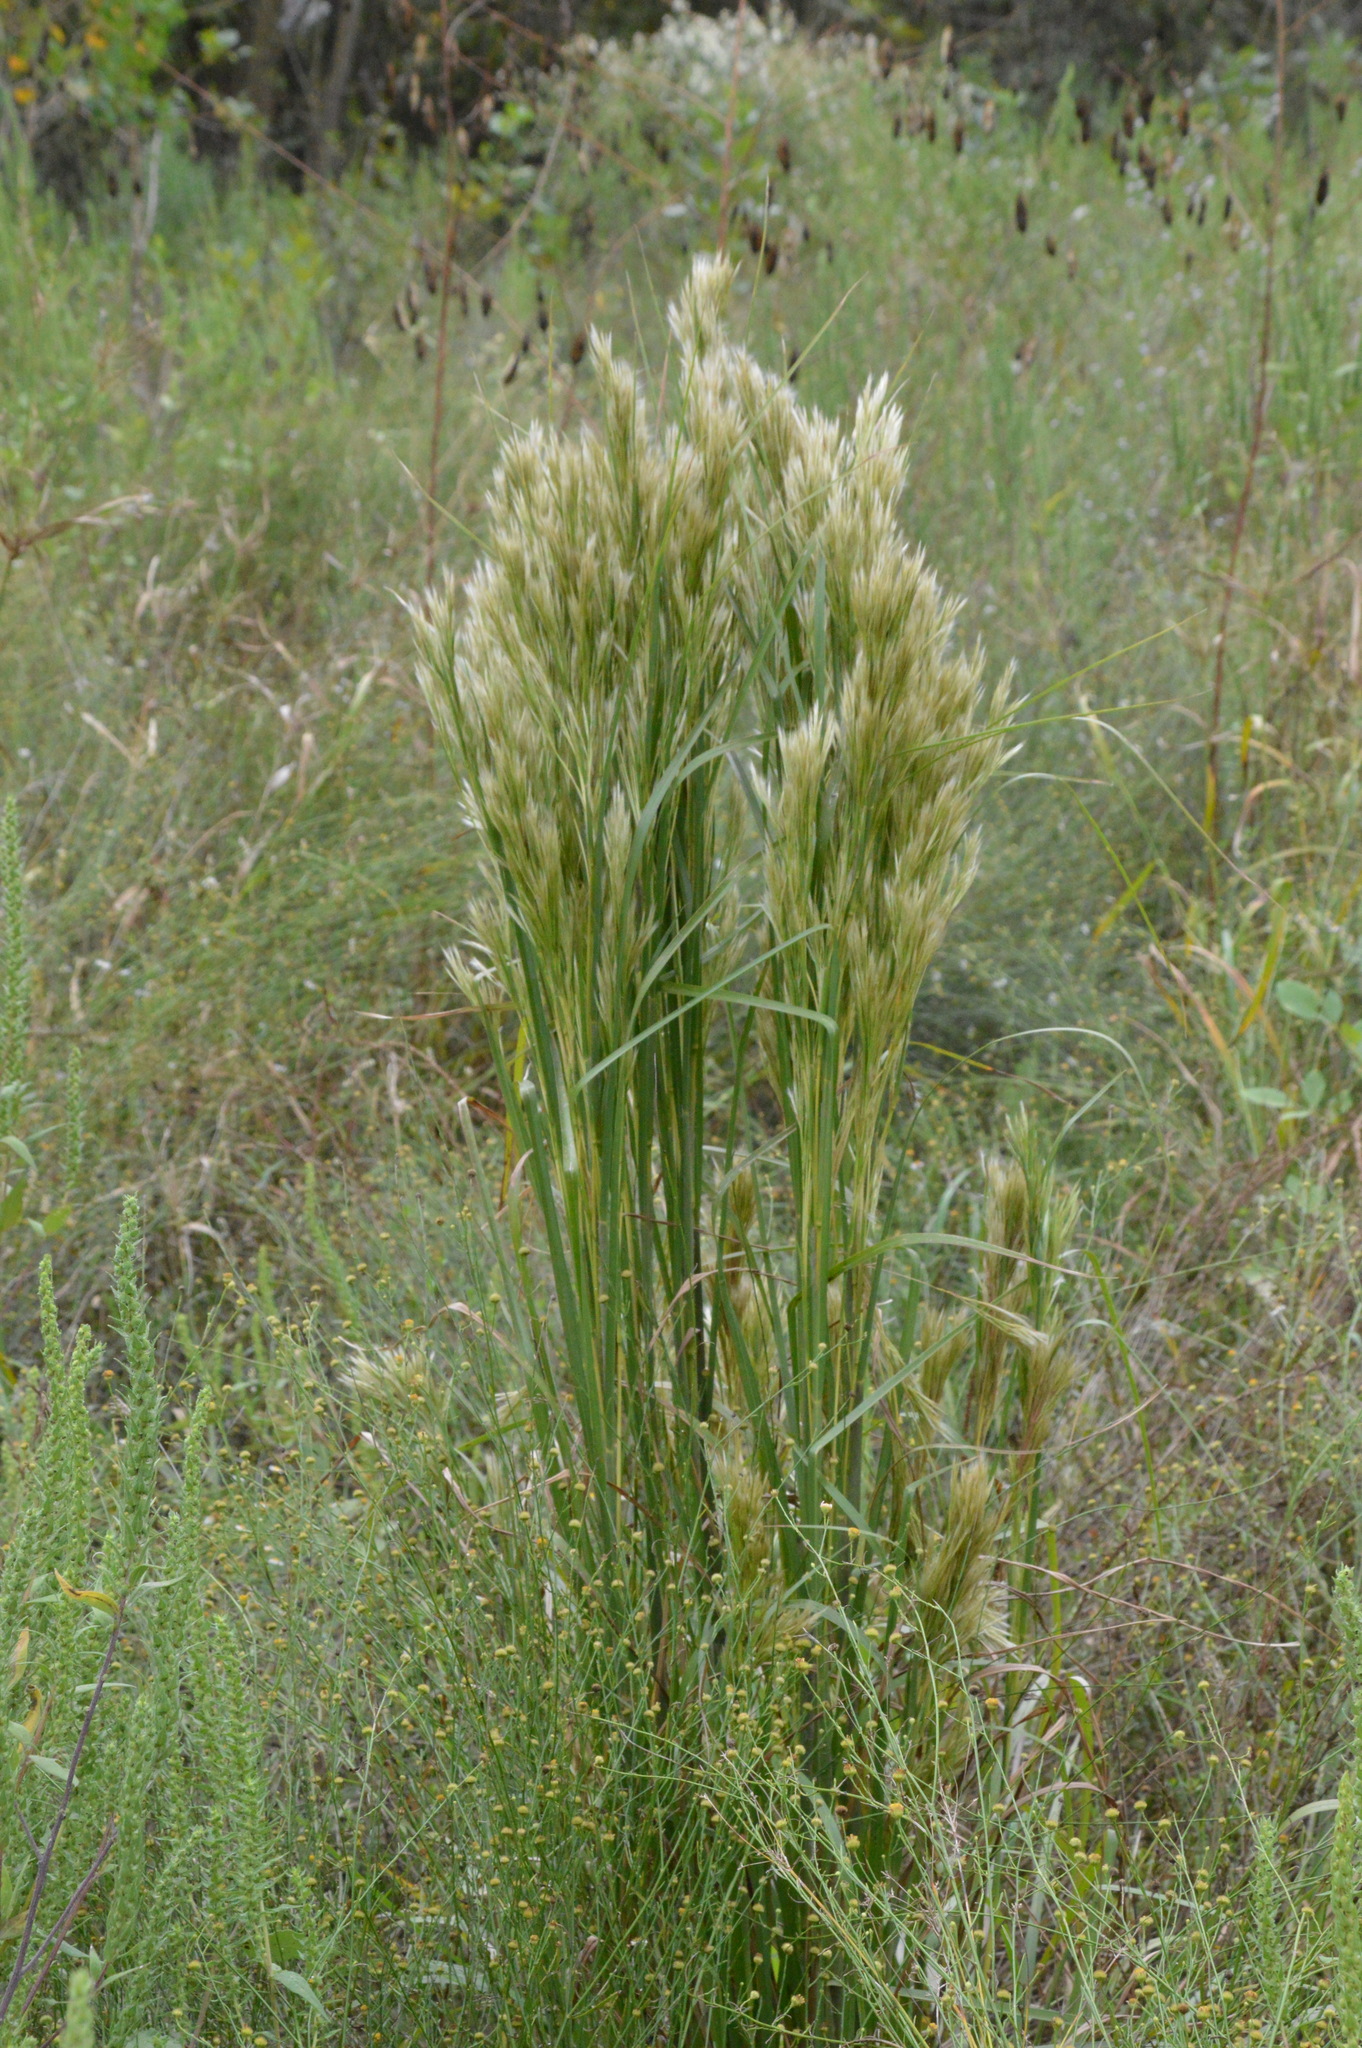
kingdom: Plantae
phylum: Tracheophyta
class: Liliopsida
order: Poales
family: Poaceae
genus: Andropogon
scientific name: Andropogon tenuispatheus
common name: Bushy bluestem
